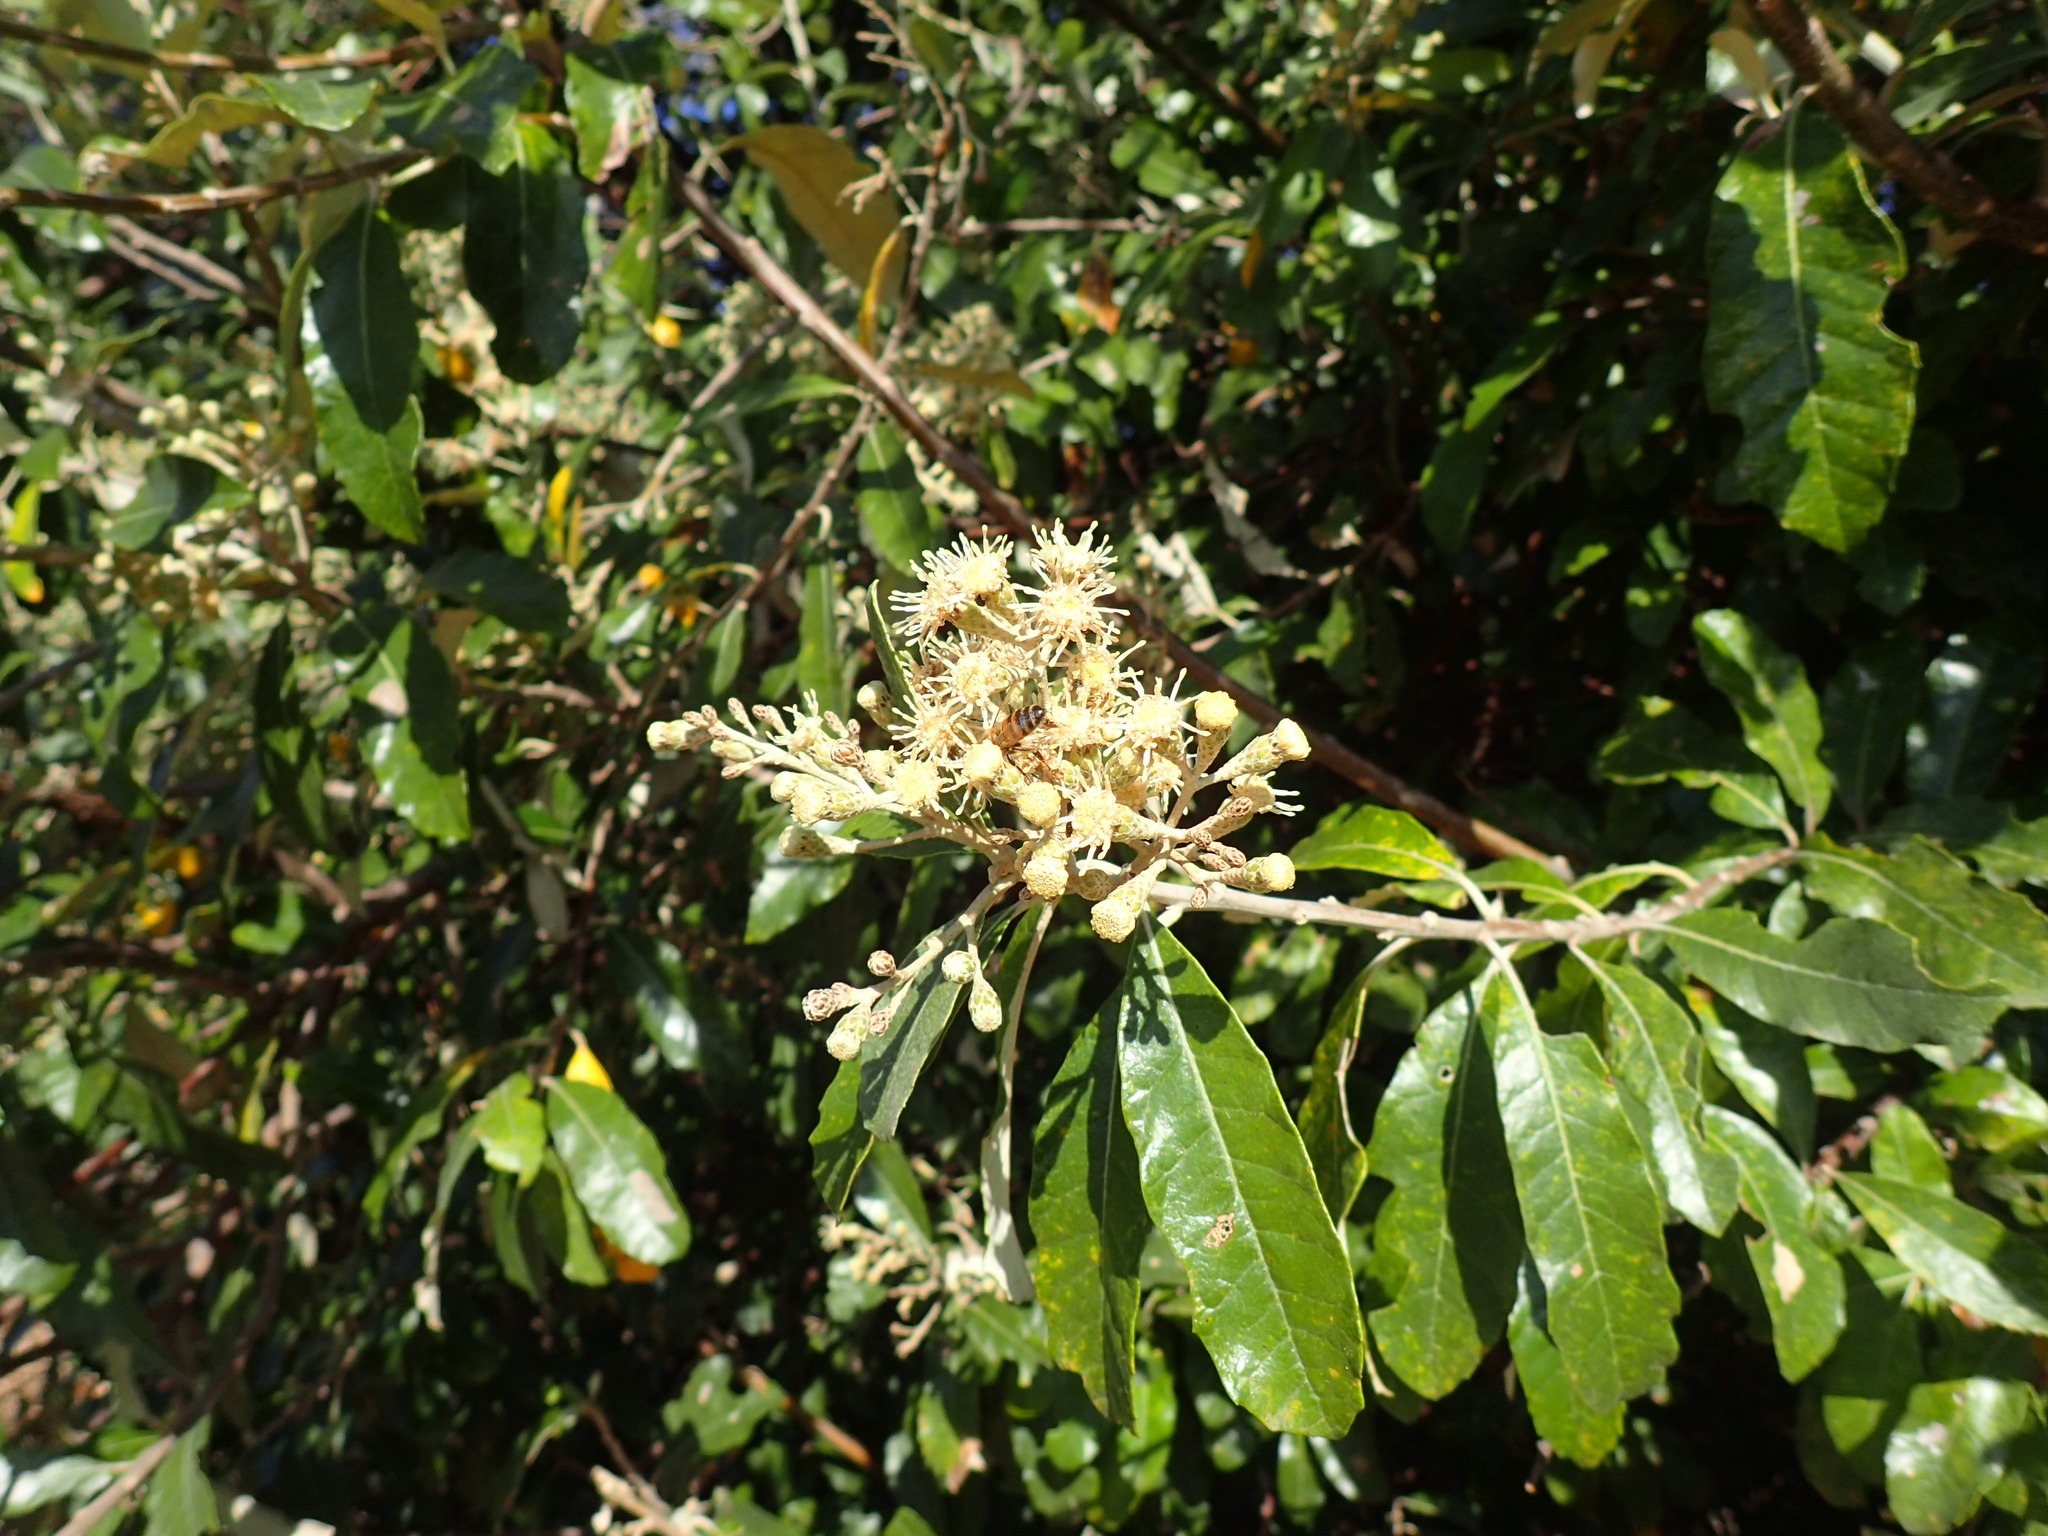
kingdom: Plantae
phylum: Tracheophyta
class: Magnoliopsida
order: Asterales
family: Asteraceae
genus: Brachylaena
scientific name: Brachylaena discolor
